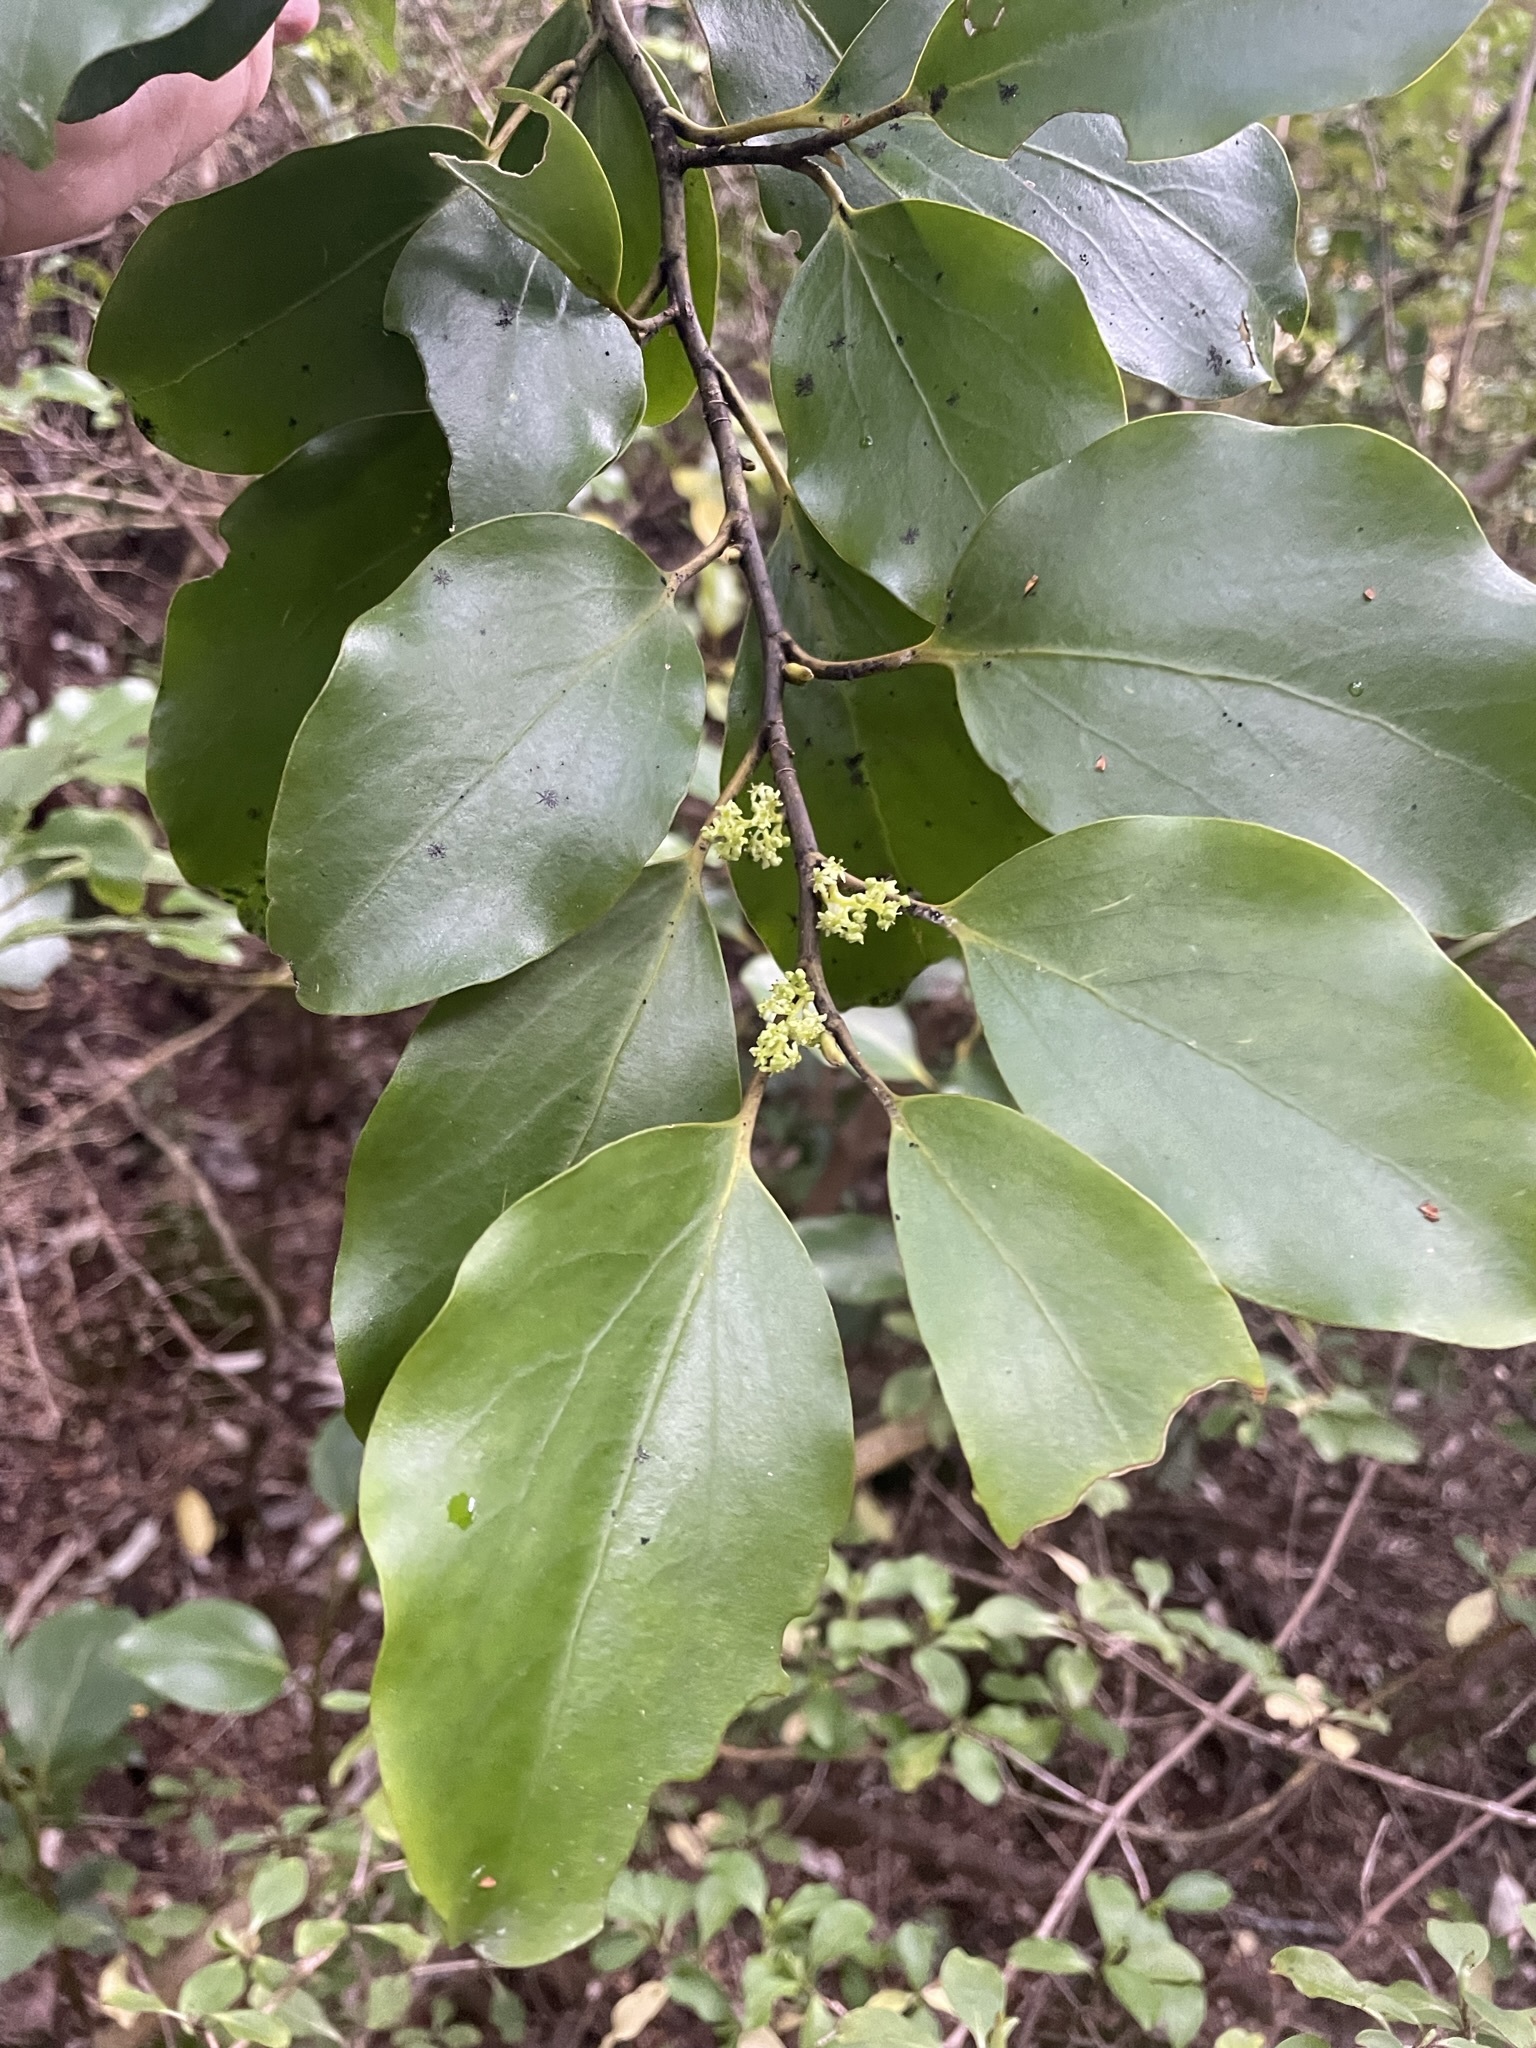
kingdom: Plantae
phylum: Tracheophyta
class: Magnoliopsida
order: Apiales
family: Griseliniaceae
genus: Griselinia
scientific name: Griselinia littoralis
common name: New zealand broadleaf
